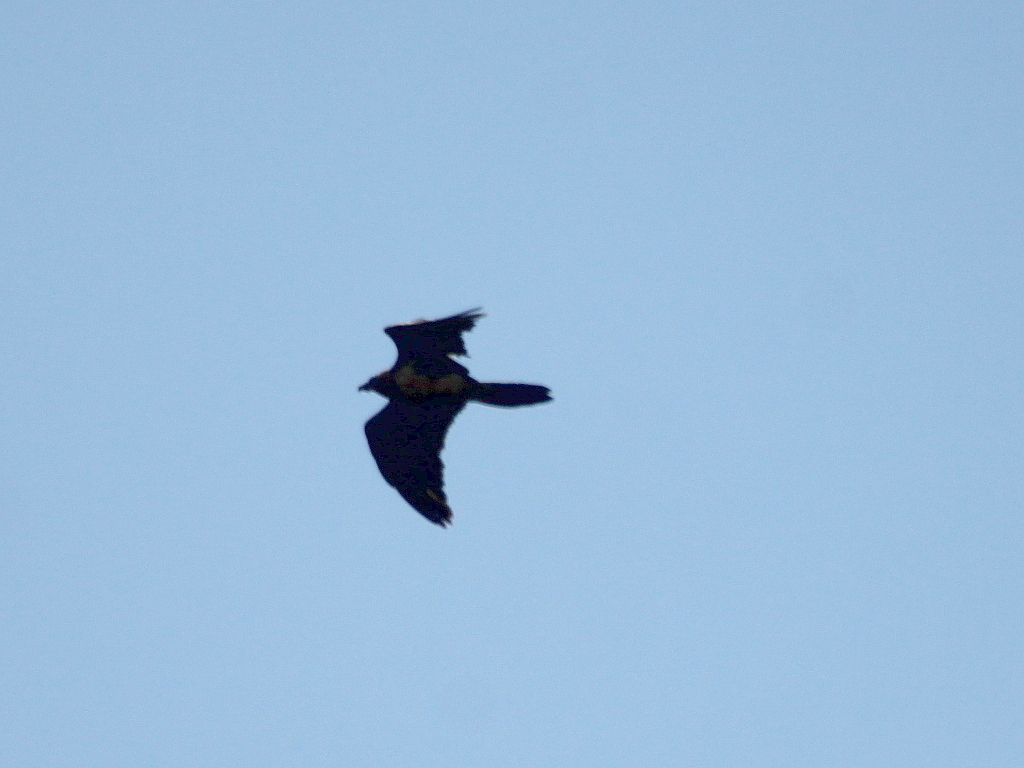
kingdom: Animalia
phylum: Chordata
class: Aves
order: Accipitriformes
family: Accipitridae
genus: Gypaetus
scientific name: Gypaetus barbatus
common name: Bearded vulture
